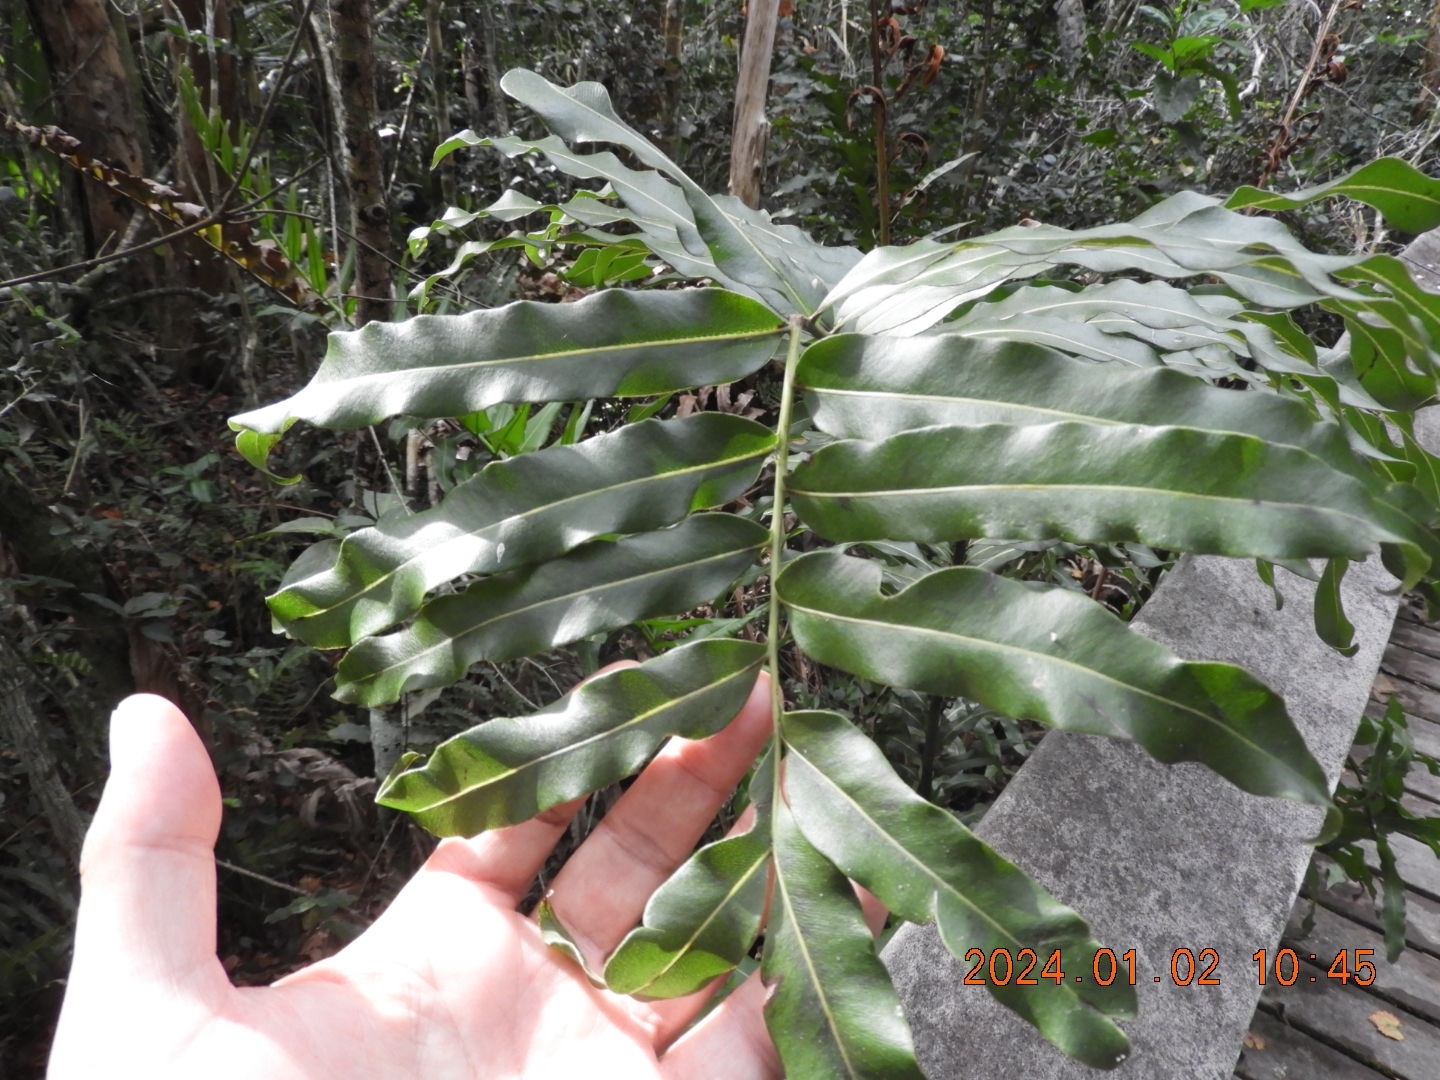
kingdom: Plantae
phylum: Tracheophyta
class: Polypodiopsida
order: Polypodiales
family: Pteridaceae
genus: Acrostichum
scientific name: Acrostichum danaeifolium
